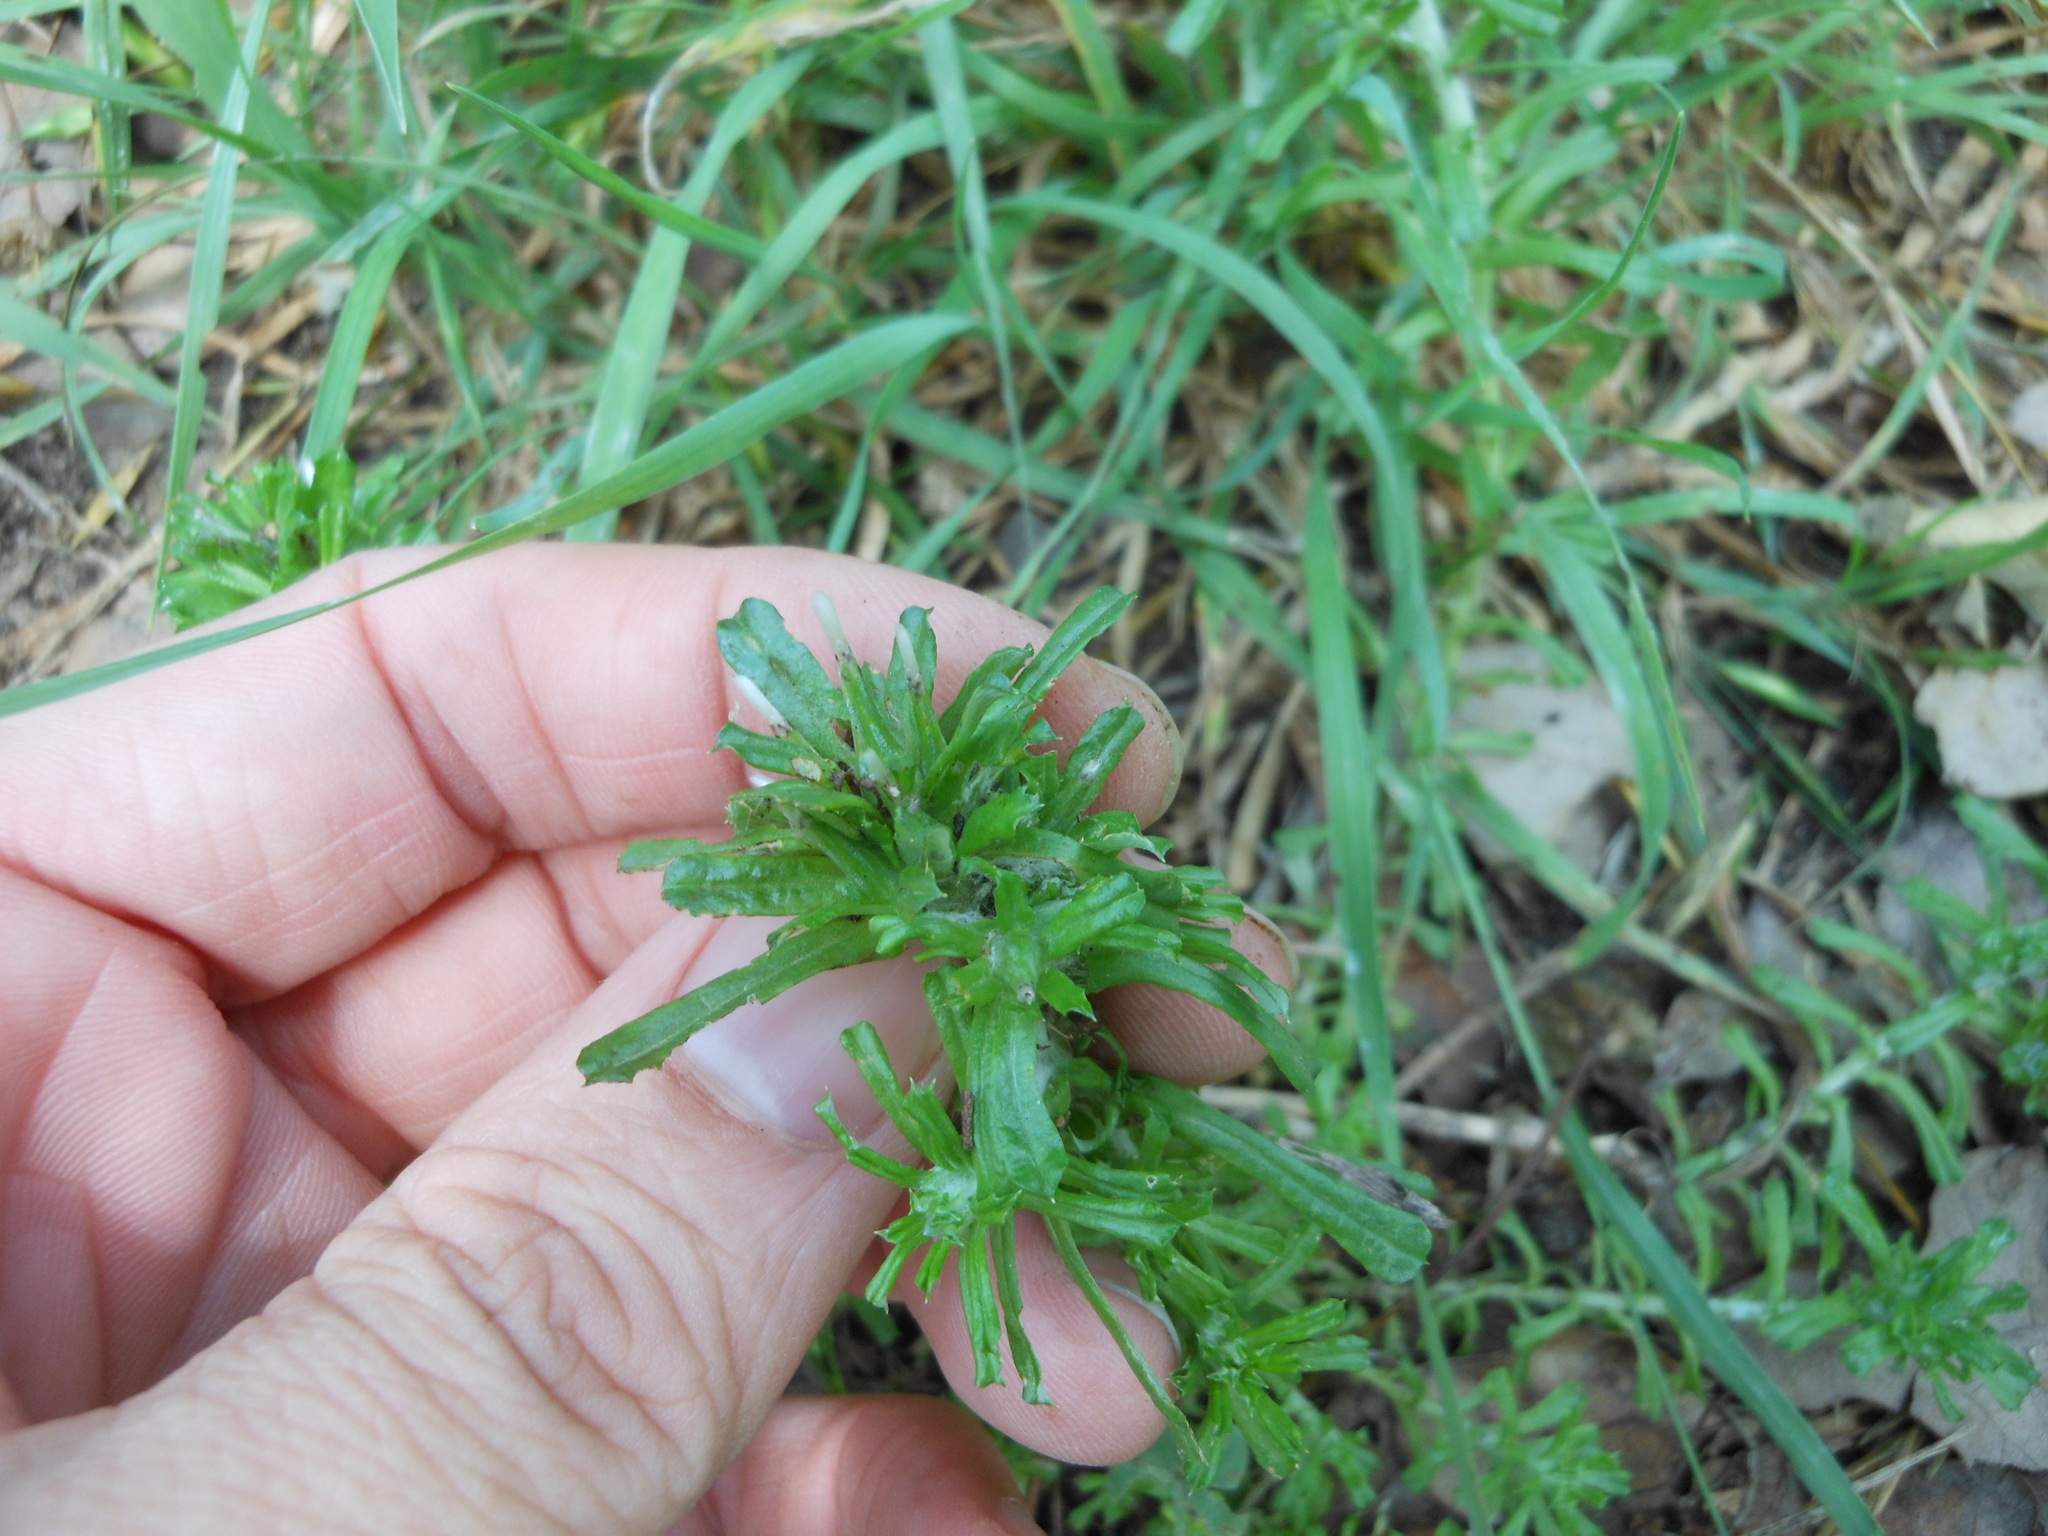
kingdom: Plantae
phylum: Tracheophyta
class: Magnoliopsida
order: Asterales
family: Asteraceae
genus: Facelis
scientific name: Facelis retusa
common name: Annual trampweed
